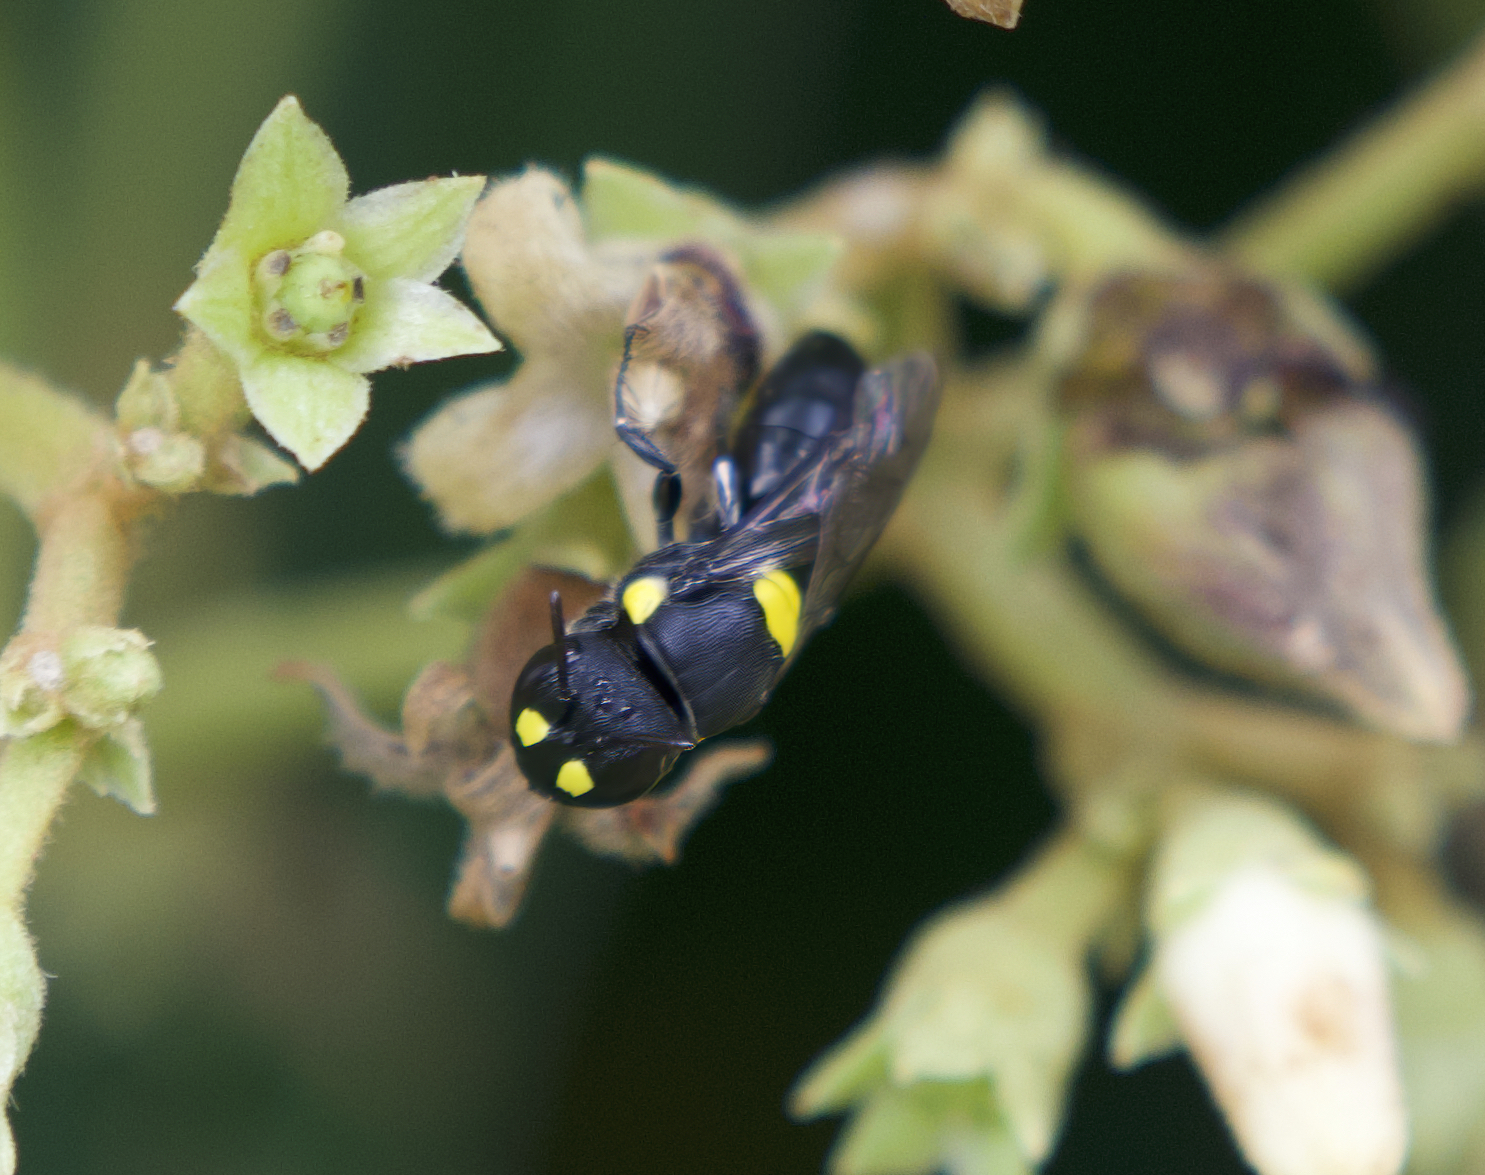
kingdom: Animalia
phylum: Arthropoda
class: Insecta
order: Hymenoptera
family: Colletidae
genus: Hylaeus
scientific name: Hylaeus rotundiceps
